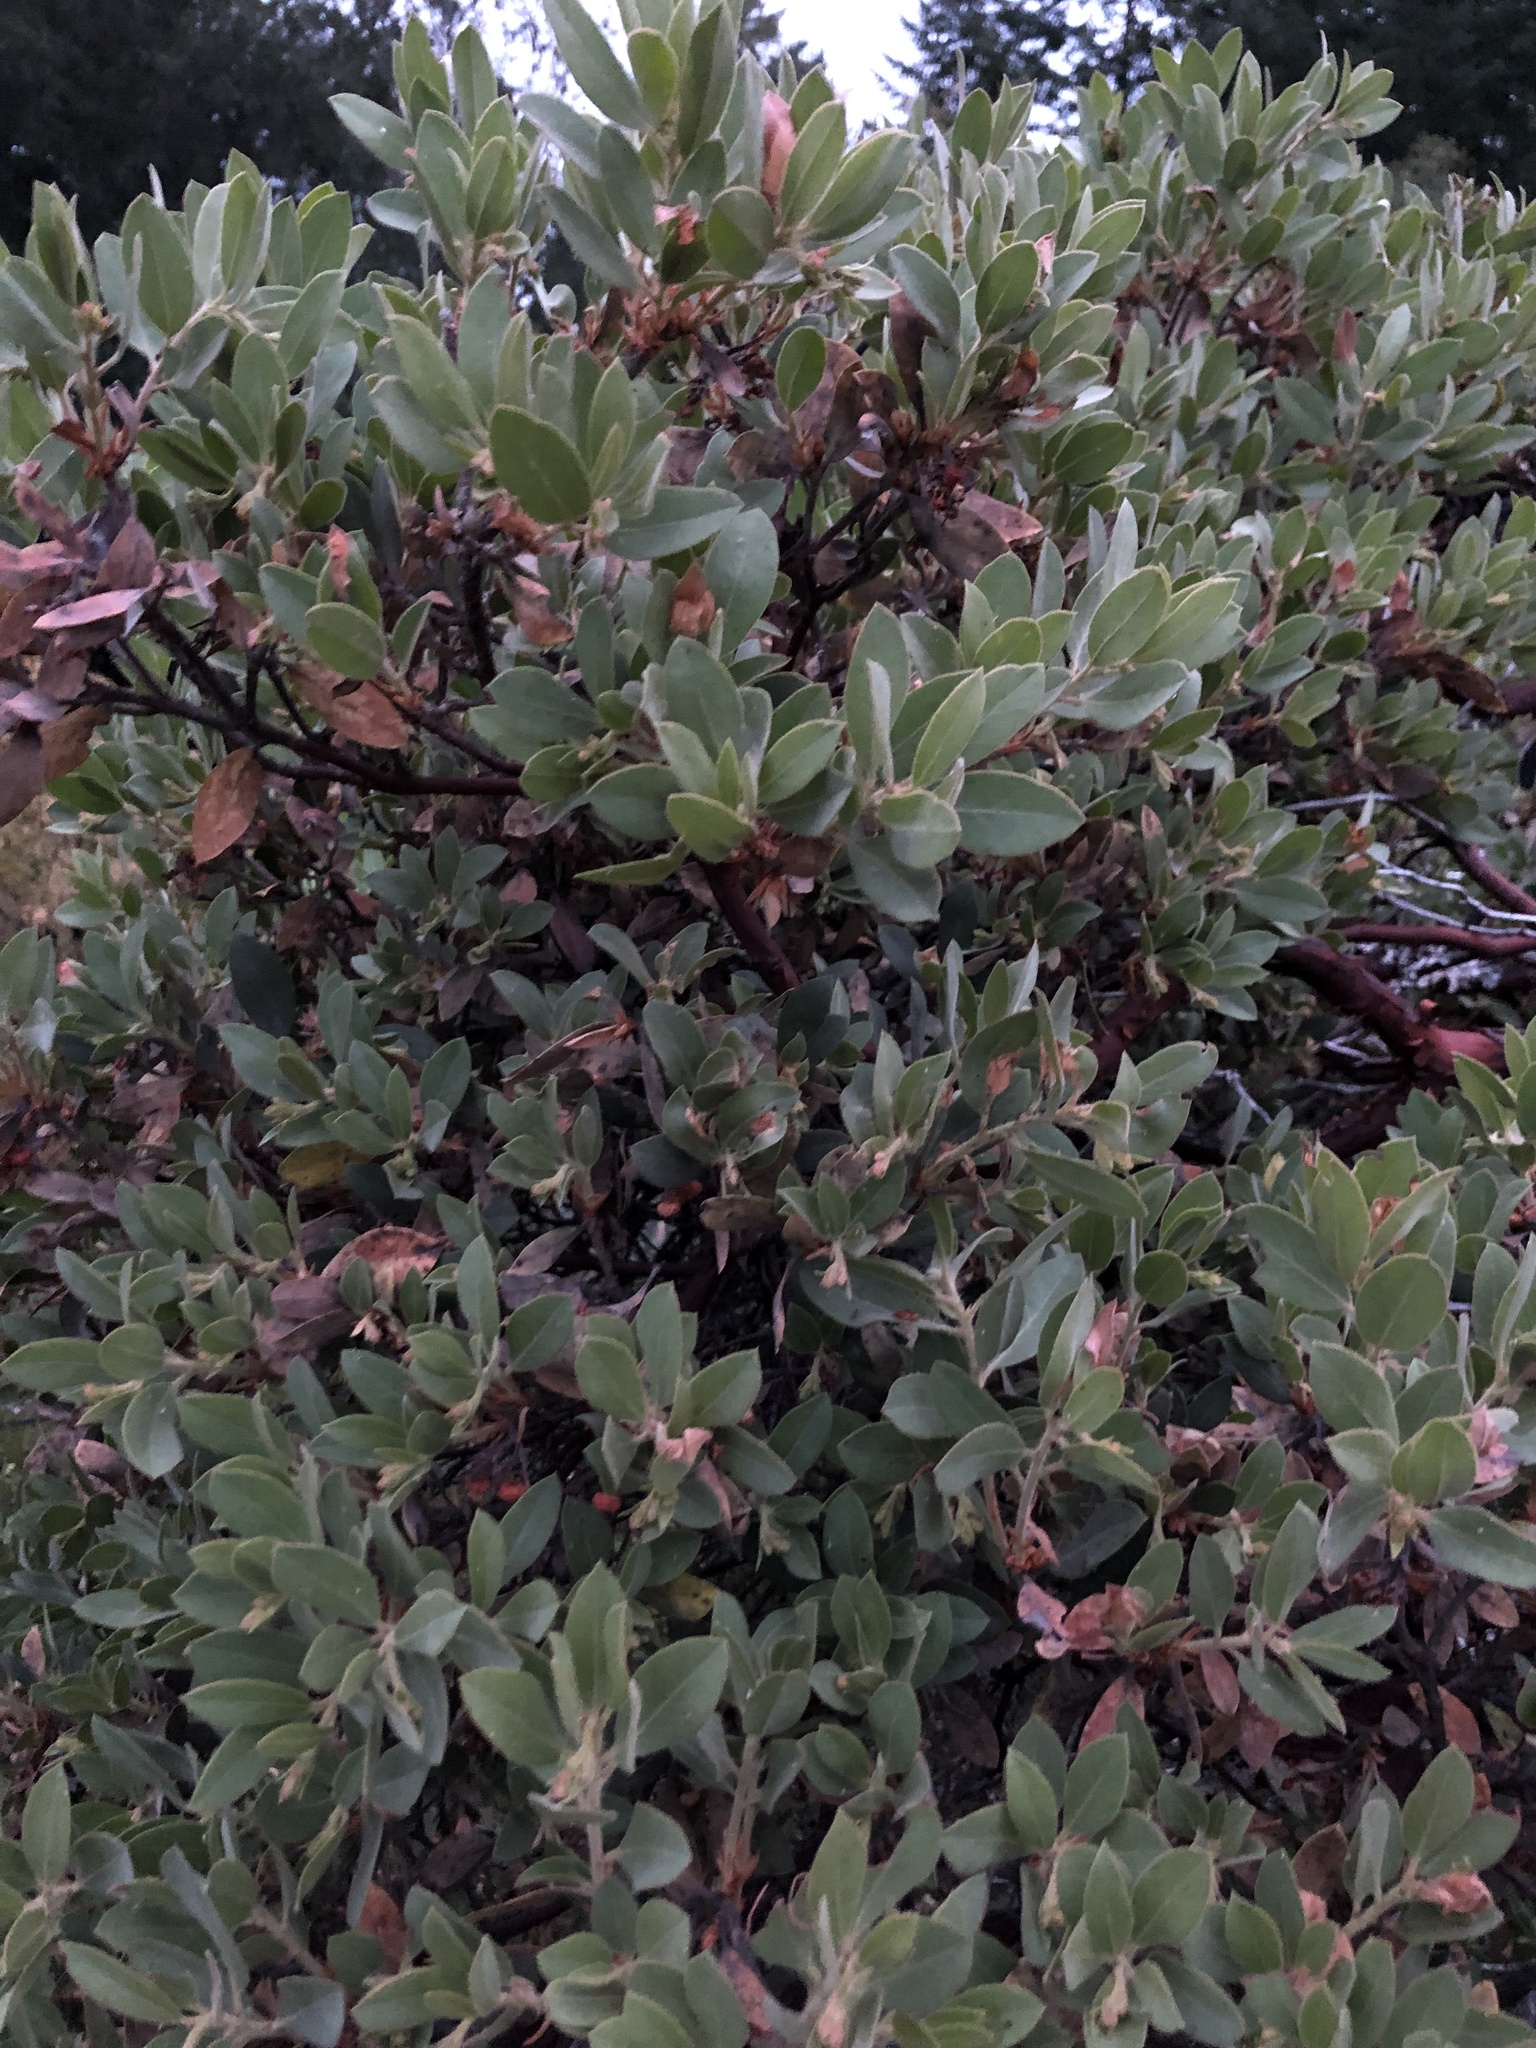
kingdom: Plantae
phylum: Tracheophyta
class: Magnoliopsida
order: Ericales
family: Ericaceae
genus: Arctostaphylos
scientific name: Arctostaphylos columbiana
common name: Bristly bearberry
